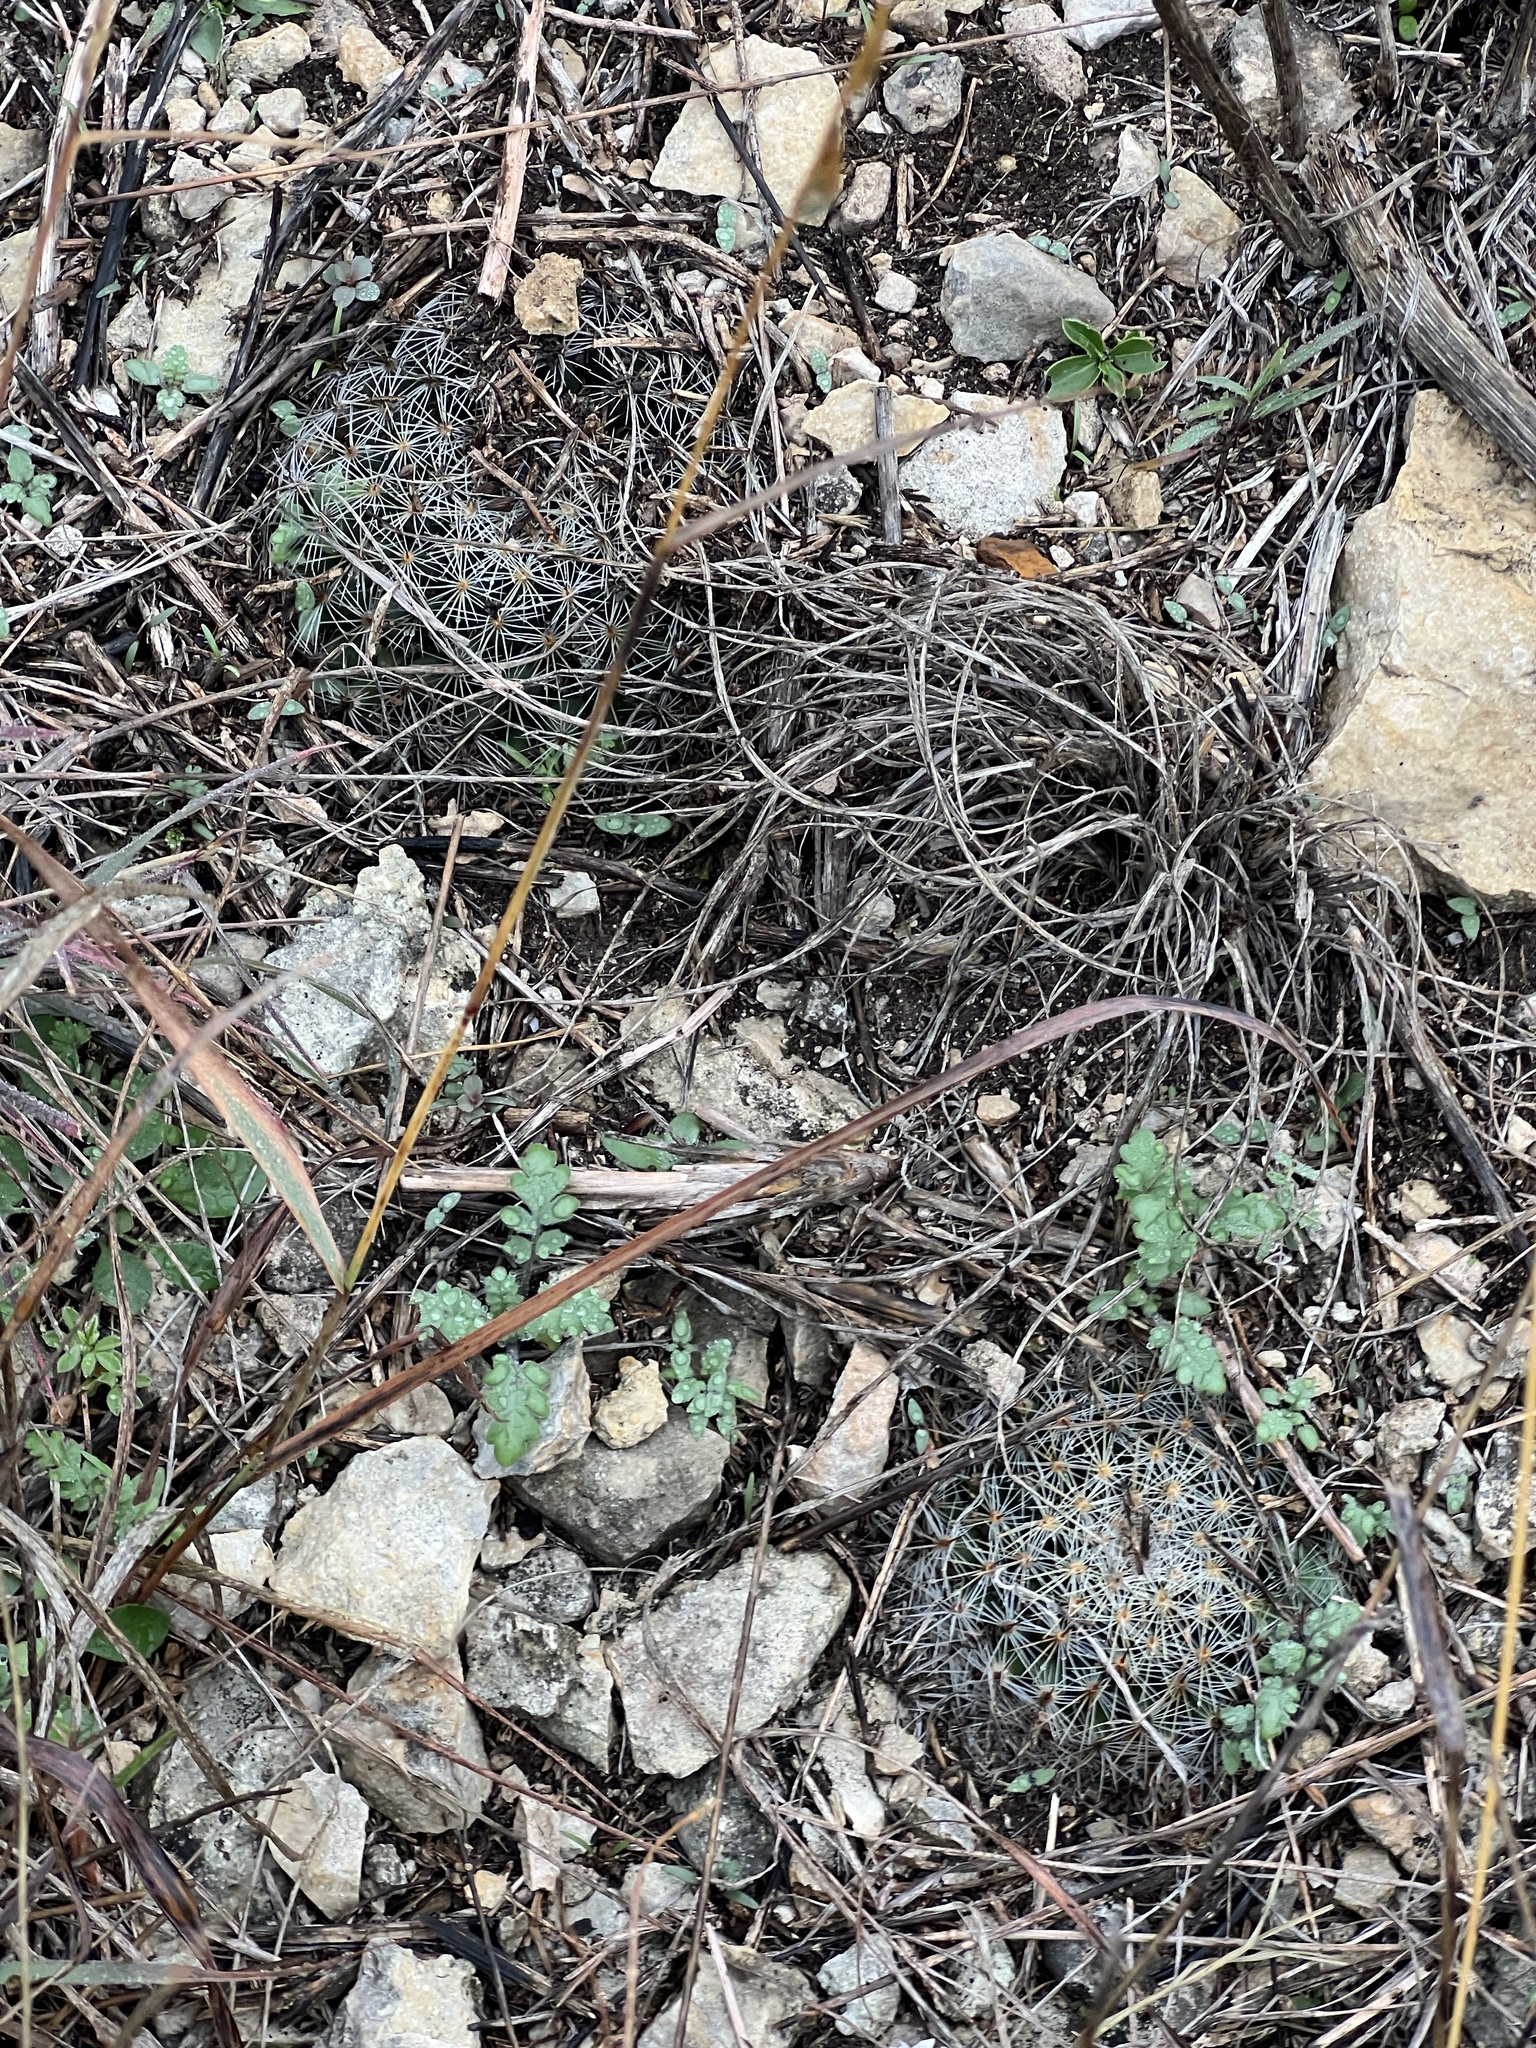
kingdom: Plantae
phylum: Tracheophyta
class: Magnoliopsida
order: Caryophyllales
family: Cactaceae
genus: Mammillaria
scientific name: Mammillaria heyderi
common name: Little nipple cactus
